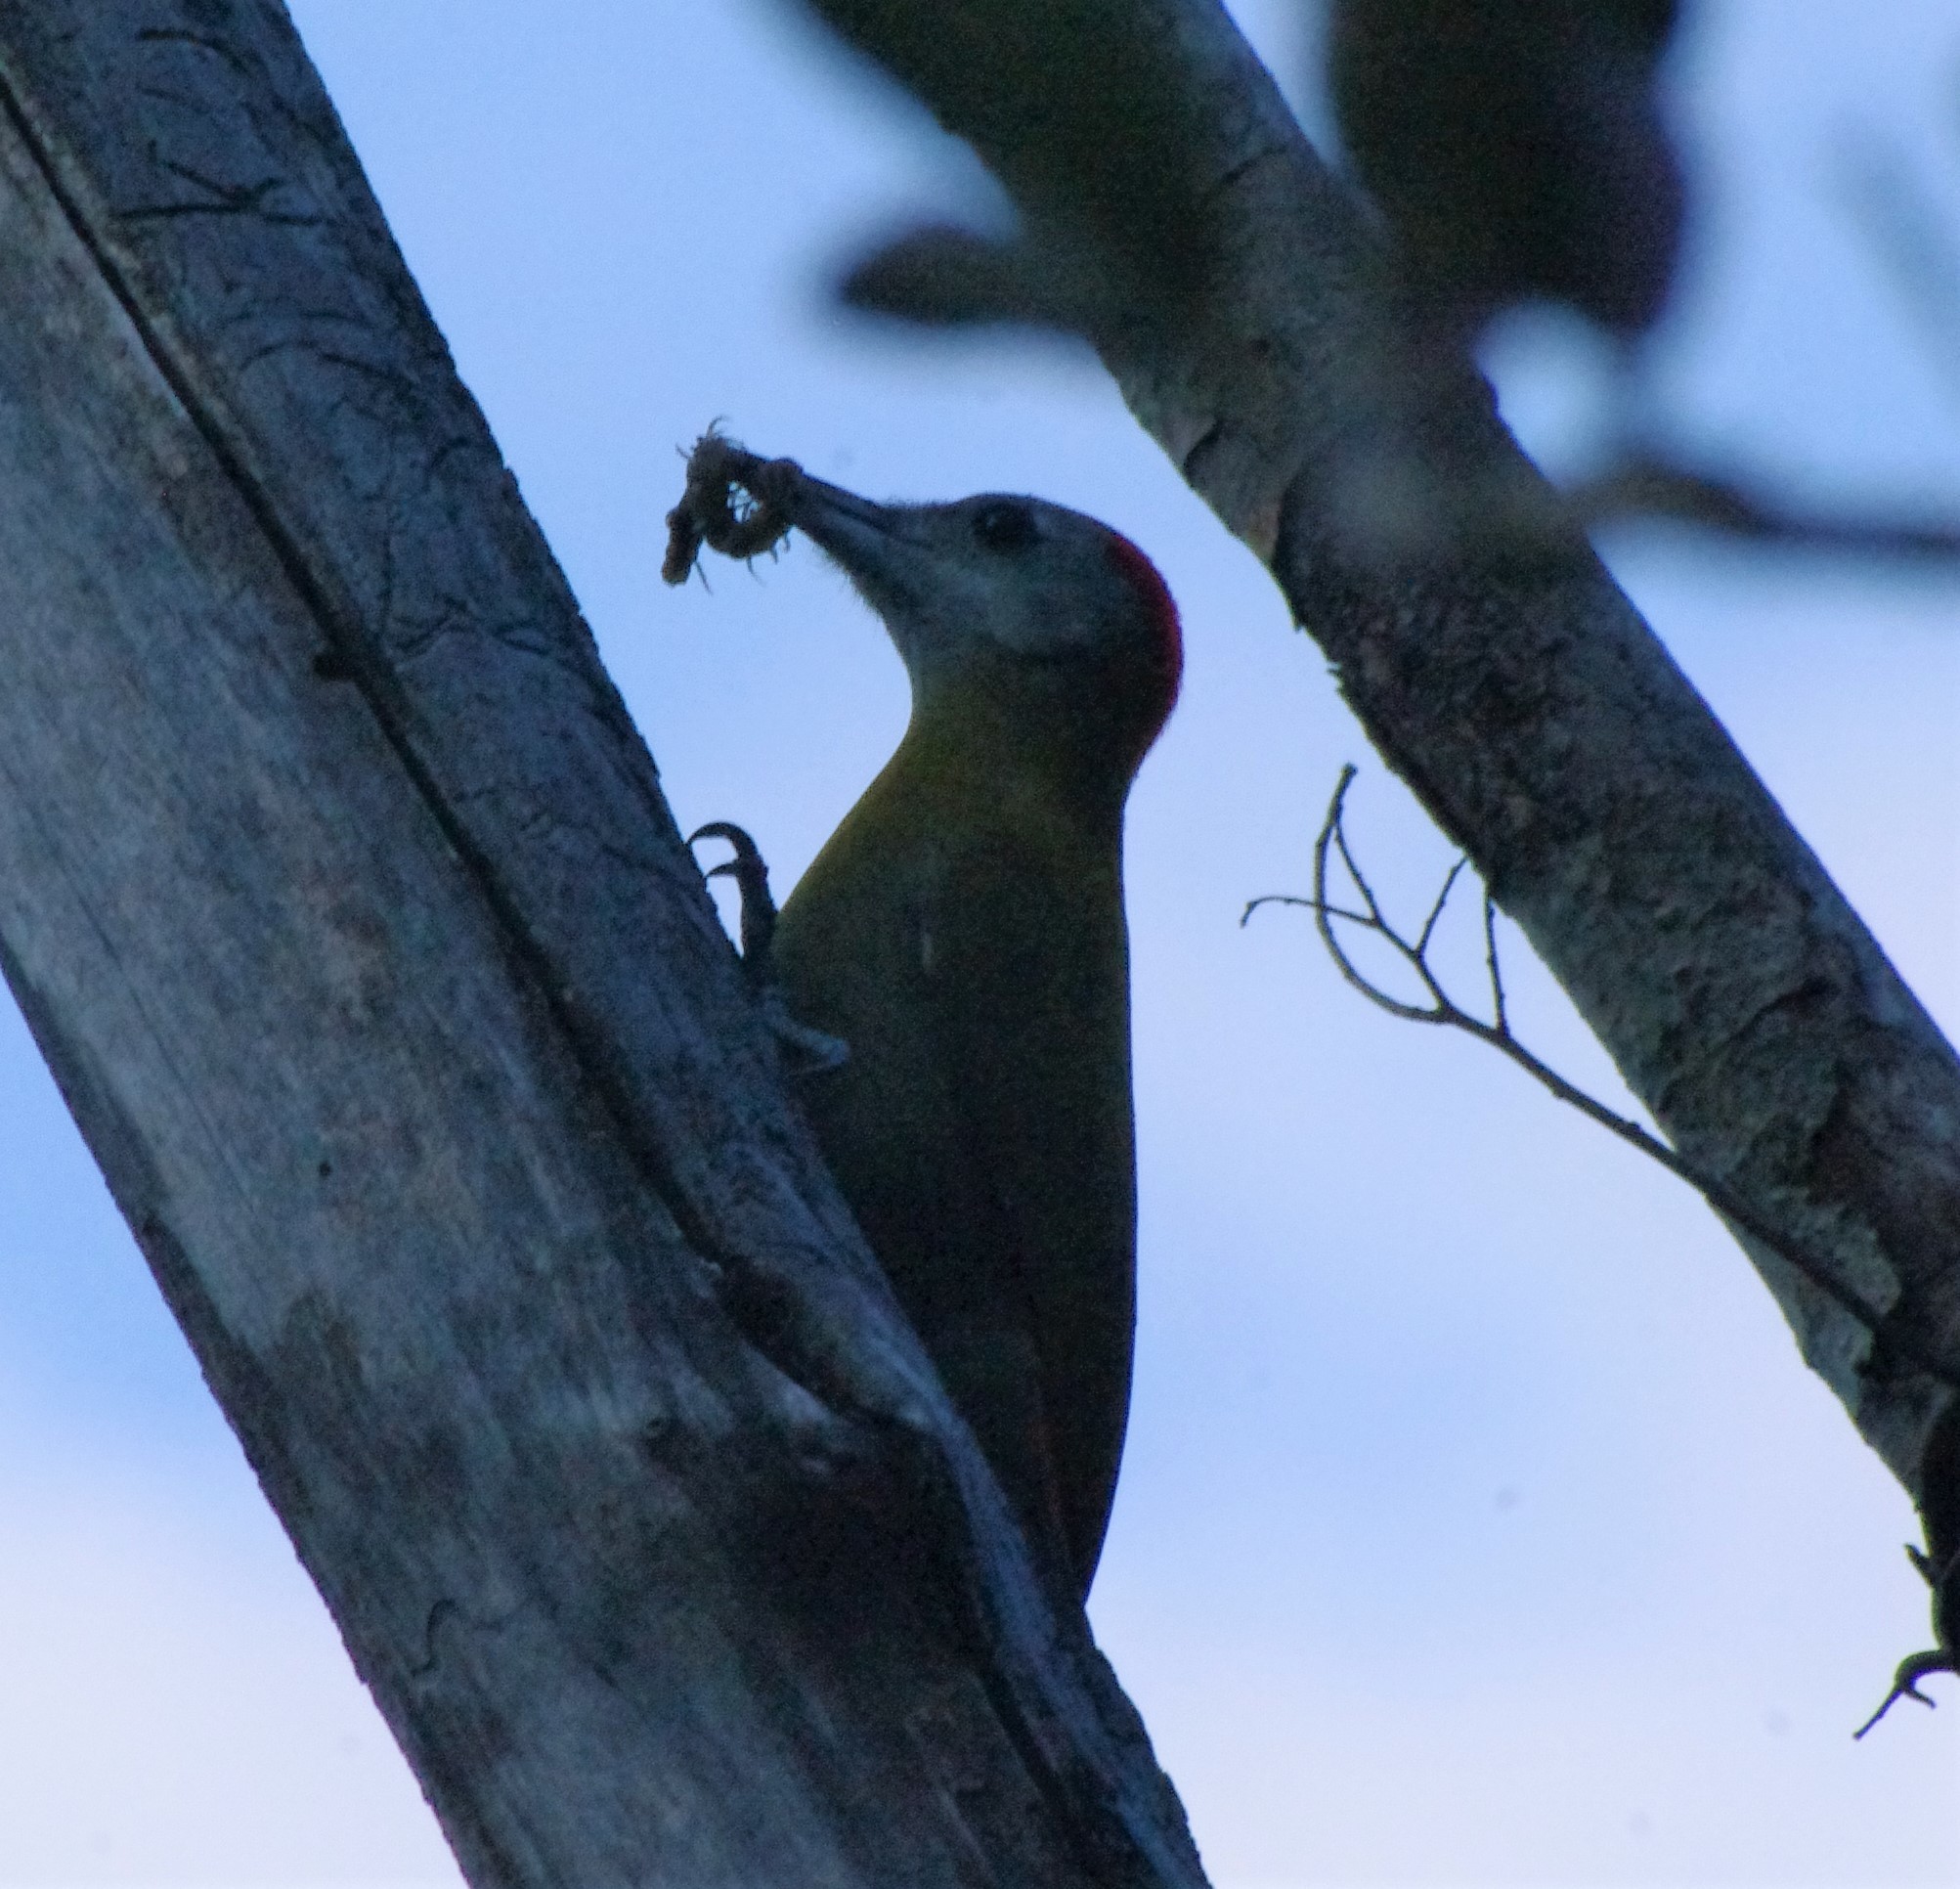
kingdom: Animalia
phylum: Chordata
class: Aves
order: Piciformes
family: Picidae
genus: Dendropicos
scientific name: Dendropicos griseocephalus
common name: Olive woodpecker
